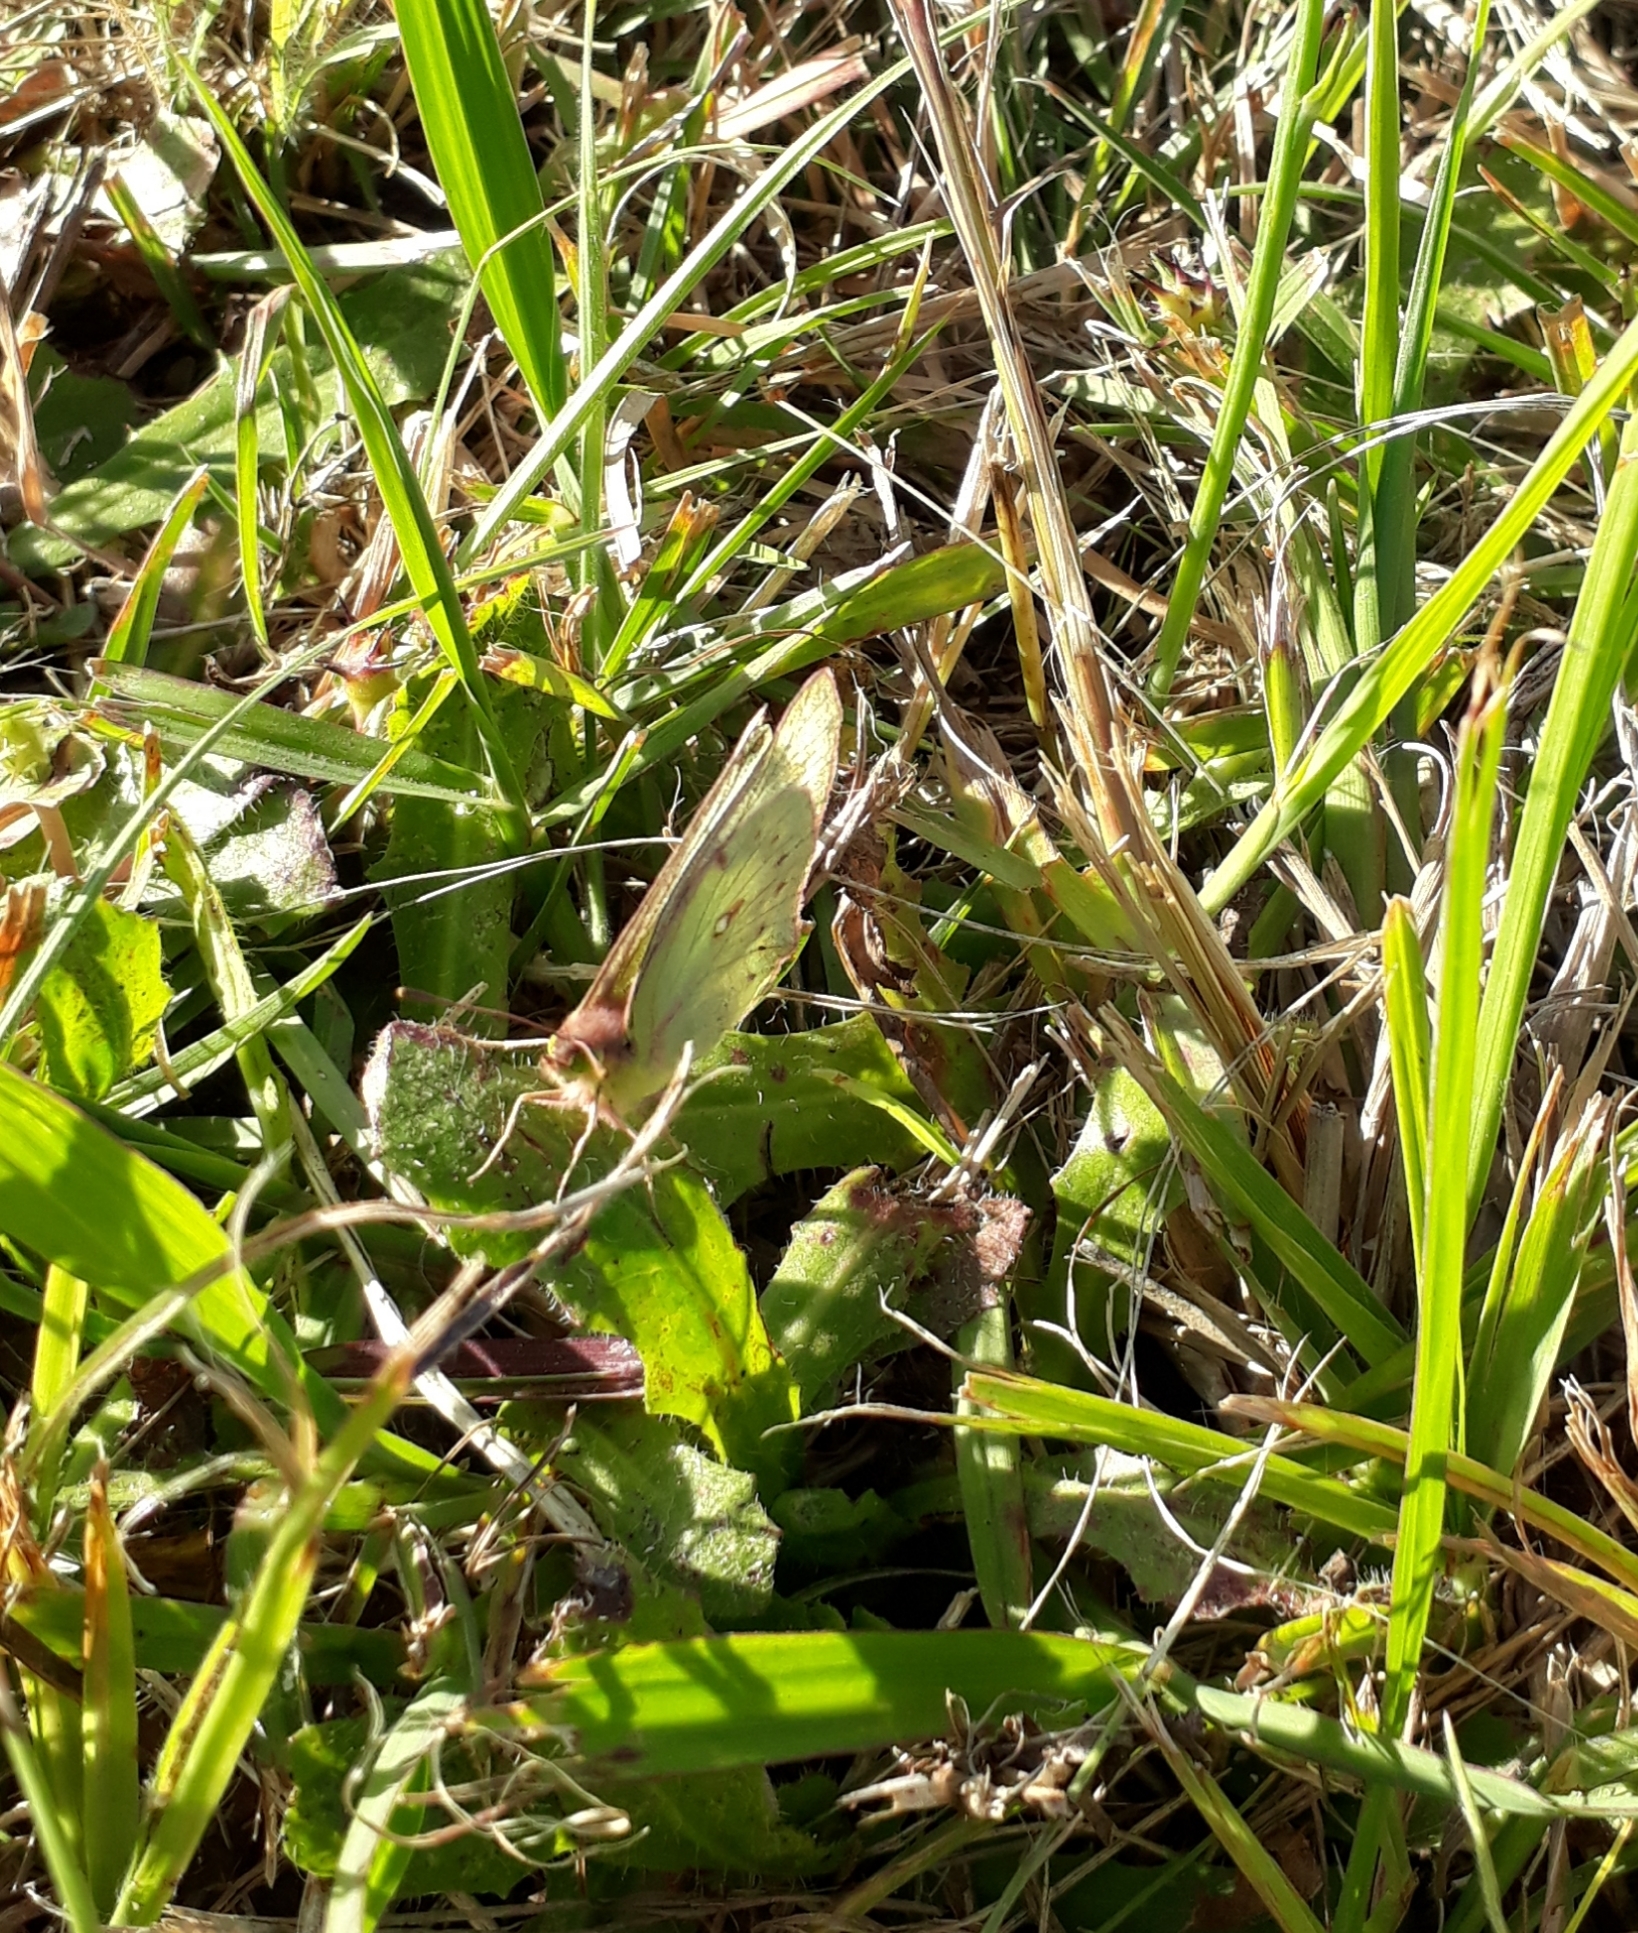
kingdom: Animalia
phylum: Arthropoda
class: Insecta
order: Lepidoptera
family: Pieridae
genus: Colias
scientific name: Colias lesbia
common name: Lesbia clouded yellow
